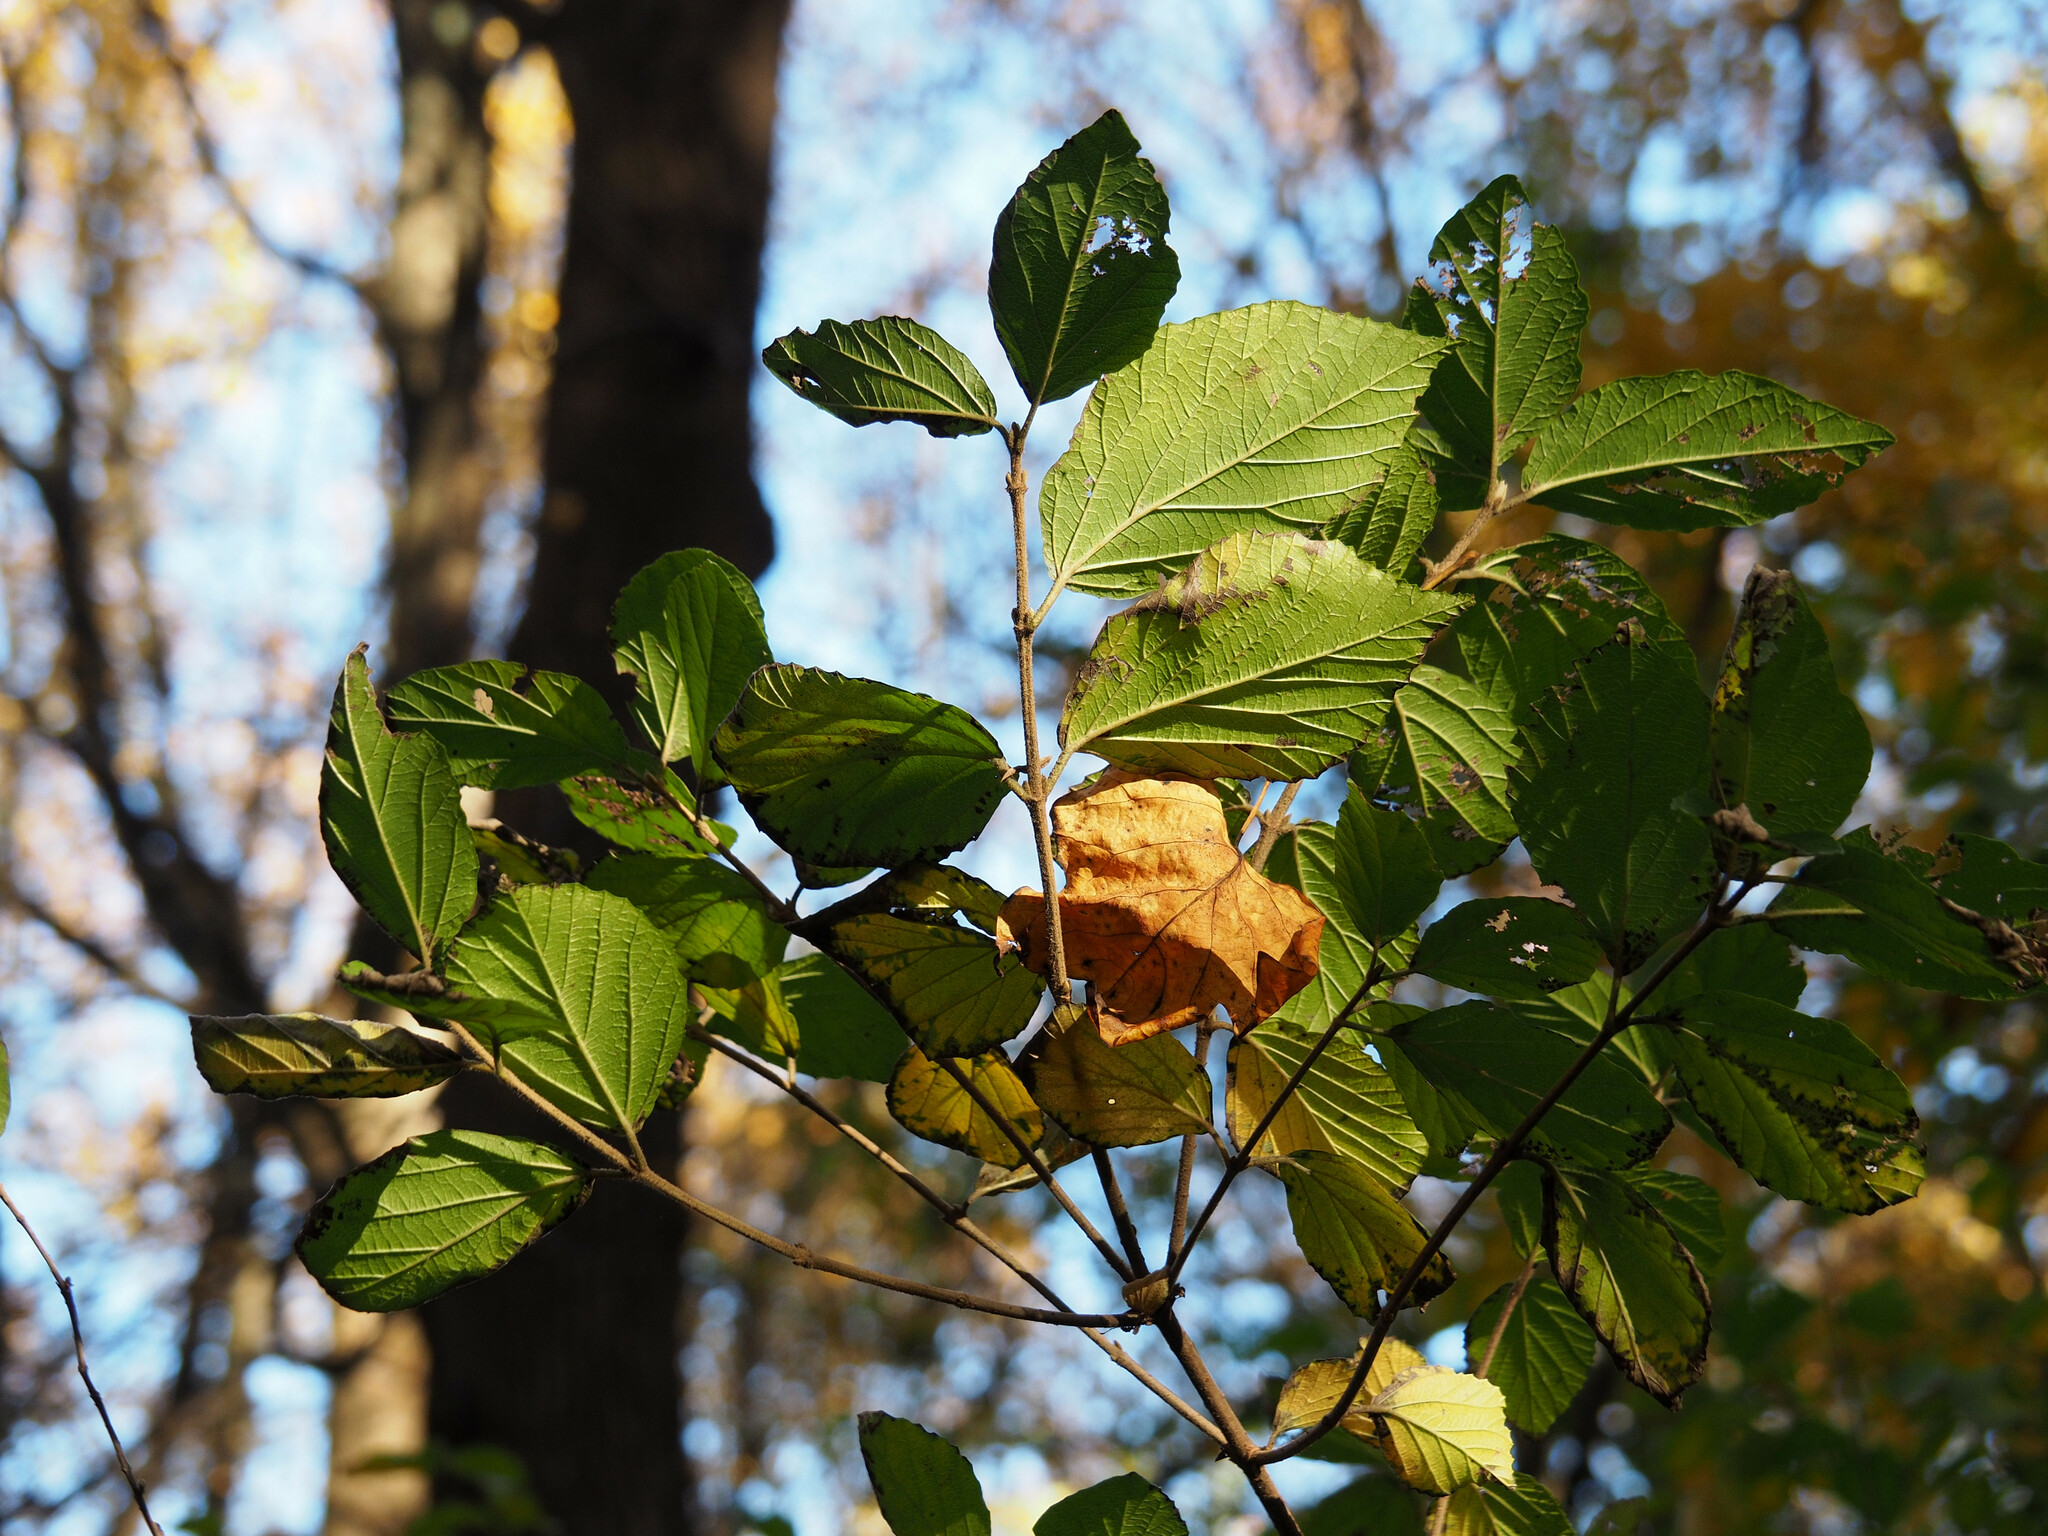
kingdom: Plantae
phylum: Tracheophyta
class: Magnoliopsida
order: Dipsacales
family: Viburnaceae
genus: Viburnum
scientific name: Viburnum dilatatum
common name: Linden arrowwood
